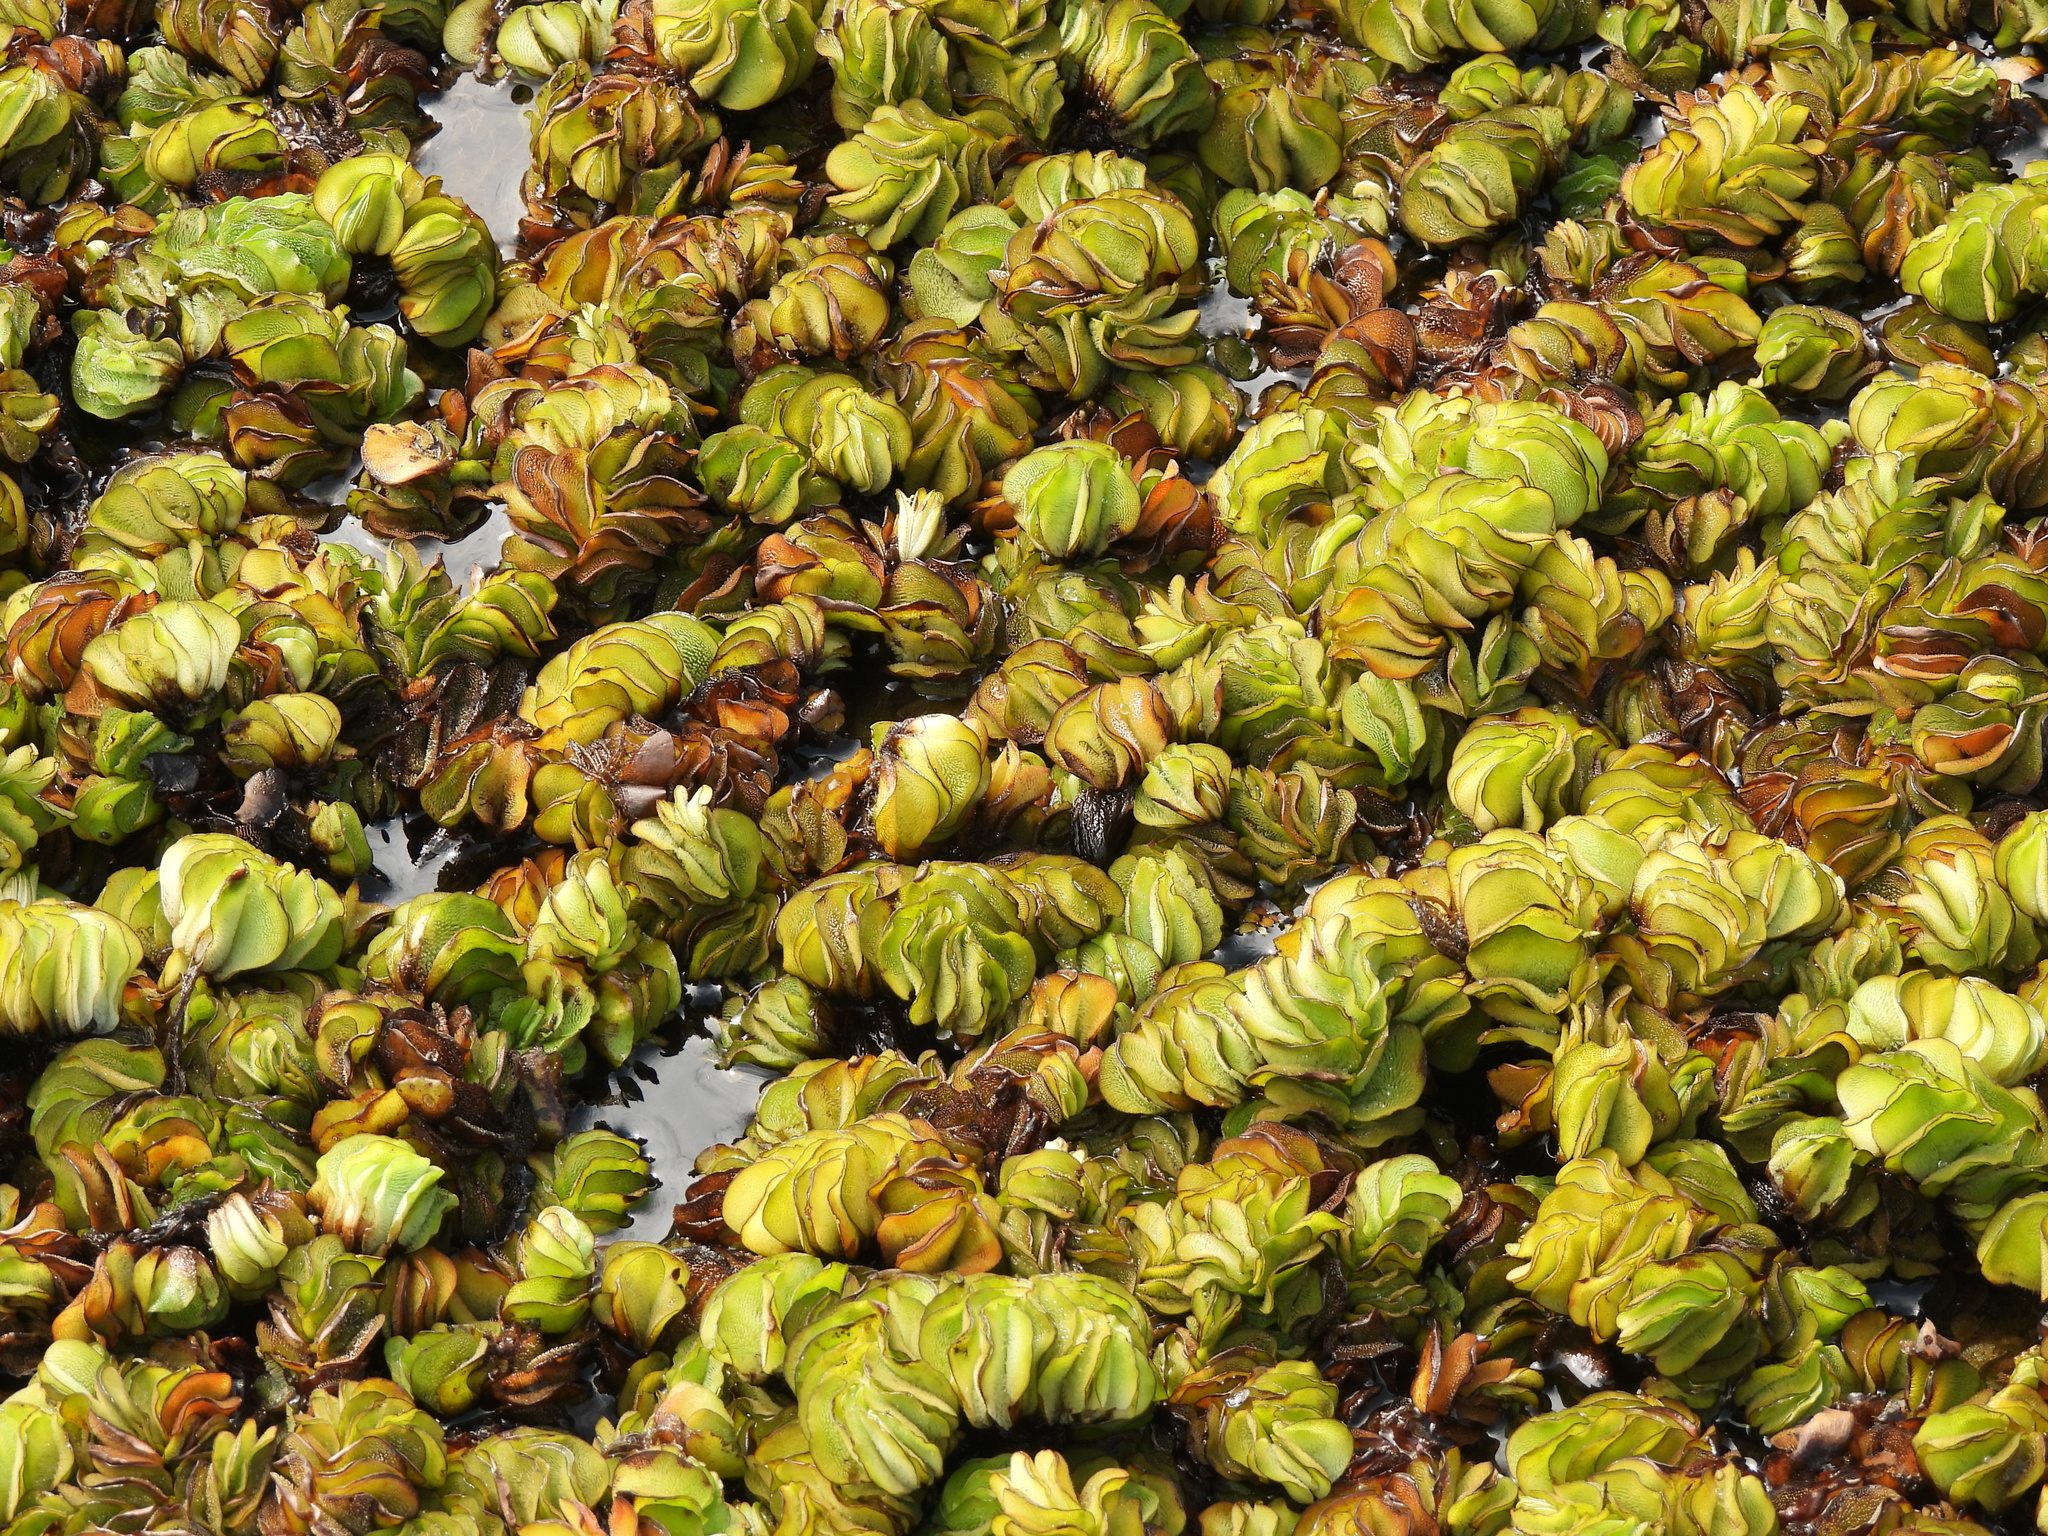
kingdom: Plantae
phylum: Tracheophyta
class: Polypodiopsida
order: Salviniales
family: Salviniaceae
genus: Salvinia
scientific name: Salvinia molesta
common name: Kariba weed
